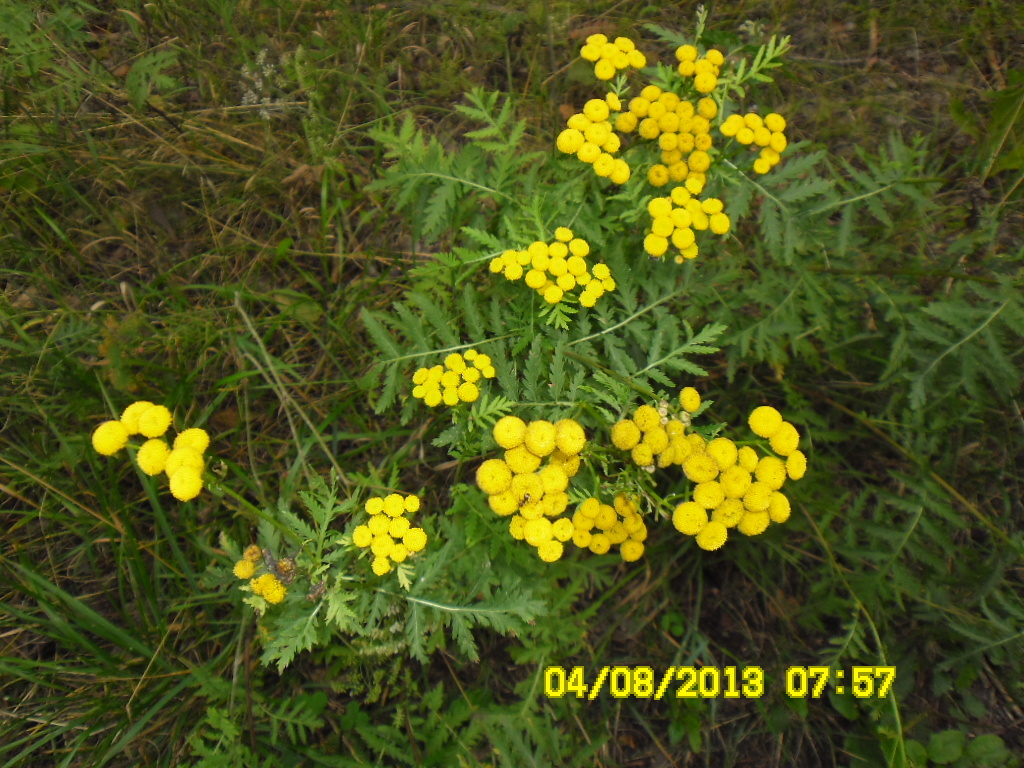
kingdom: Plantae
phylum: Tracheophyta
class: Magnoliopsida
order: Asterales
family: Asteraceae
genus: Tanacetum
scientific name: Tanacetum vulgare
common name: Common tansy
